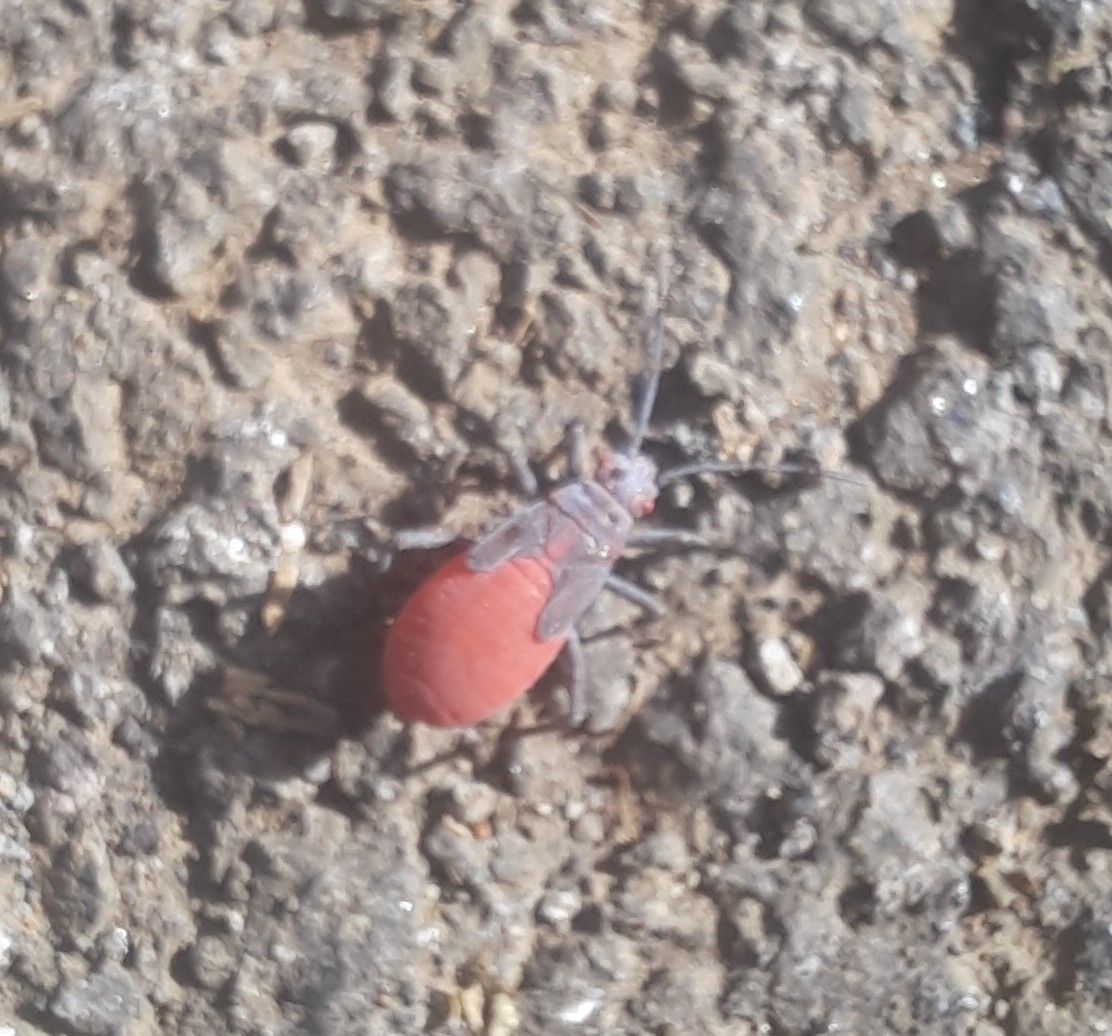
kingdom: Animalia
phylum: Arthropoda
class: Insecta
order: Hemiptera
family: Rhopalidae
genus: Jadera
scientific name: Jadera haematoloma
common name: Red-shouldered bug
